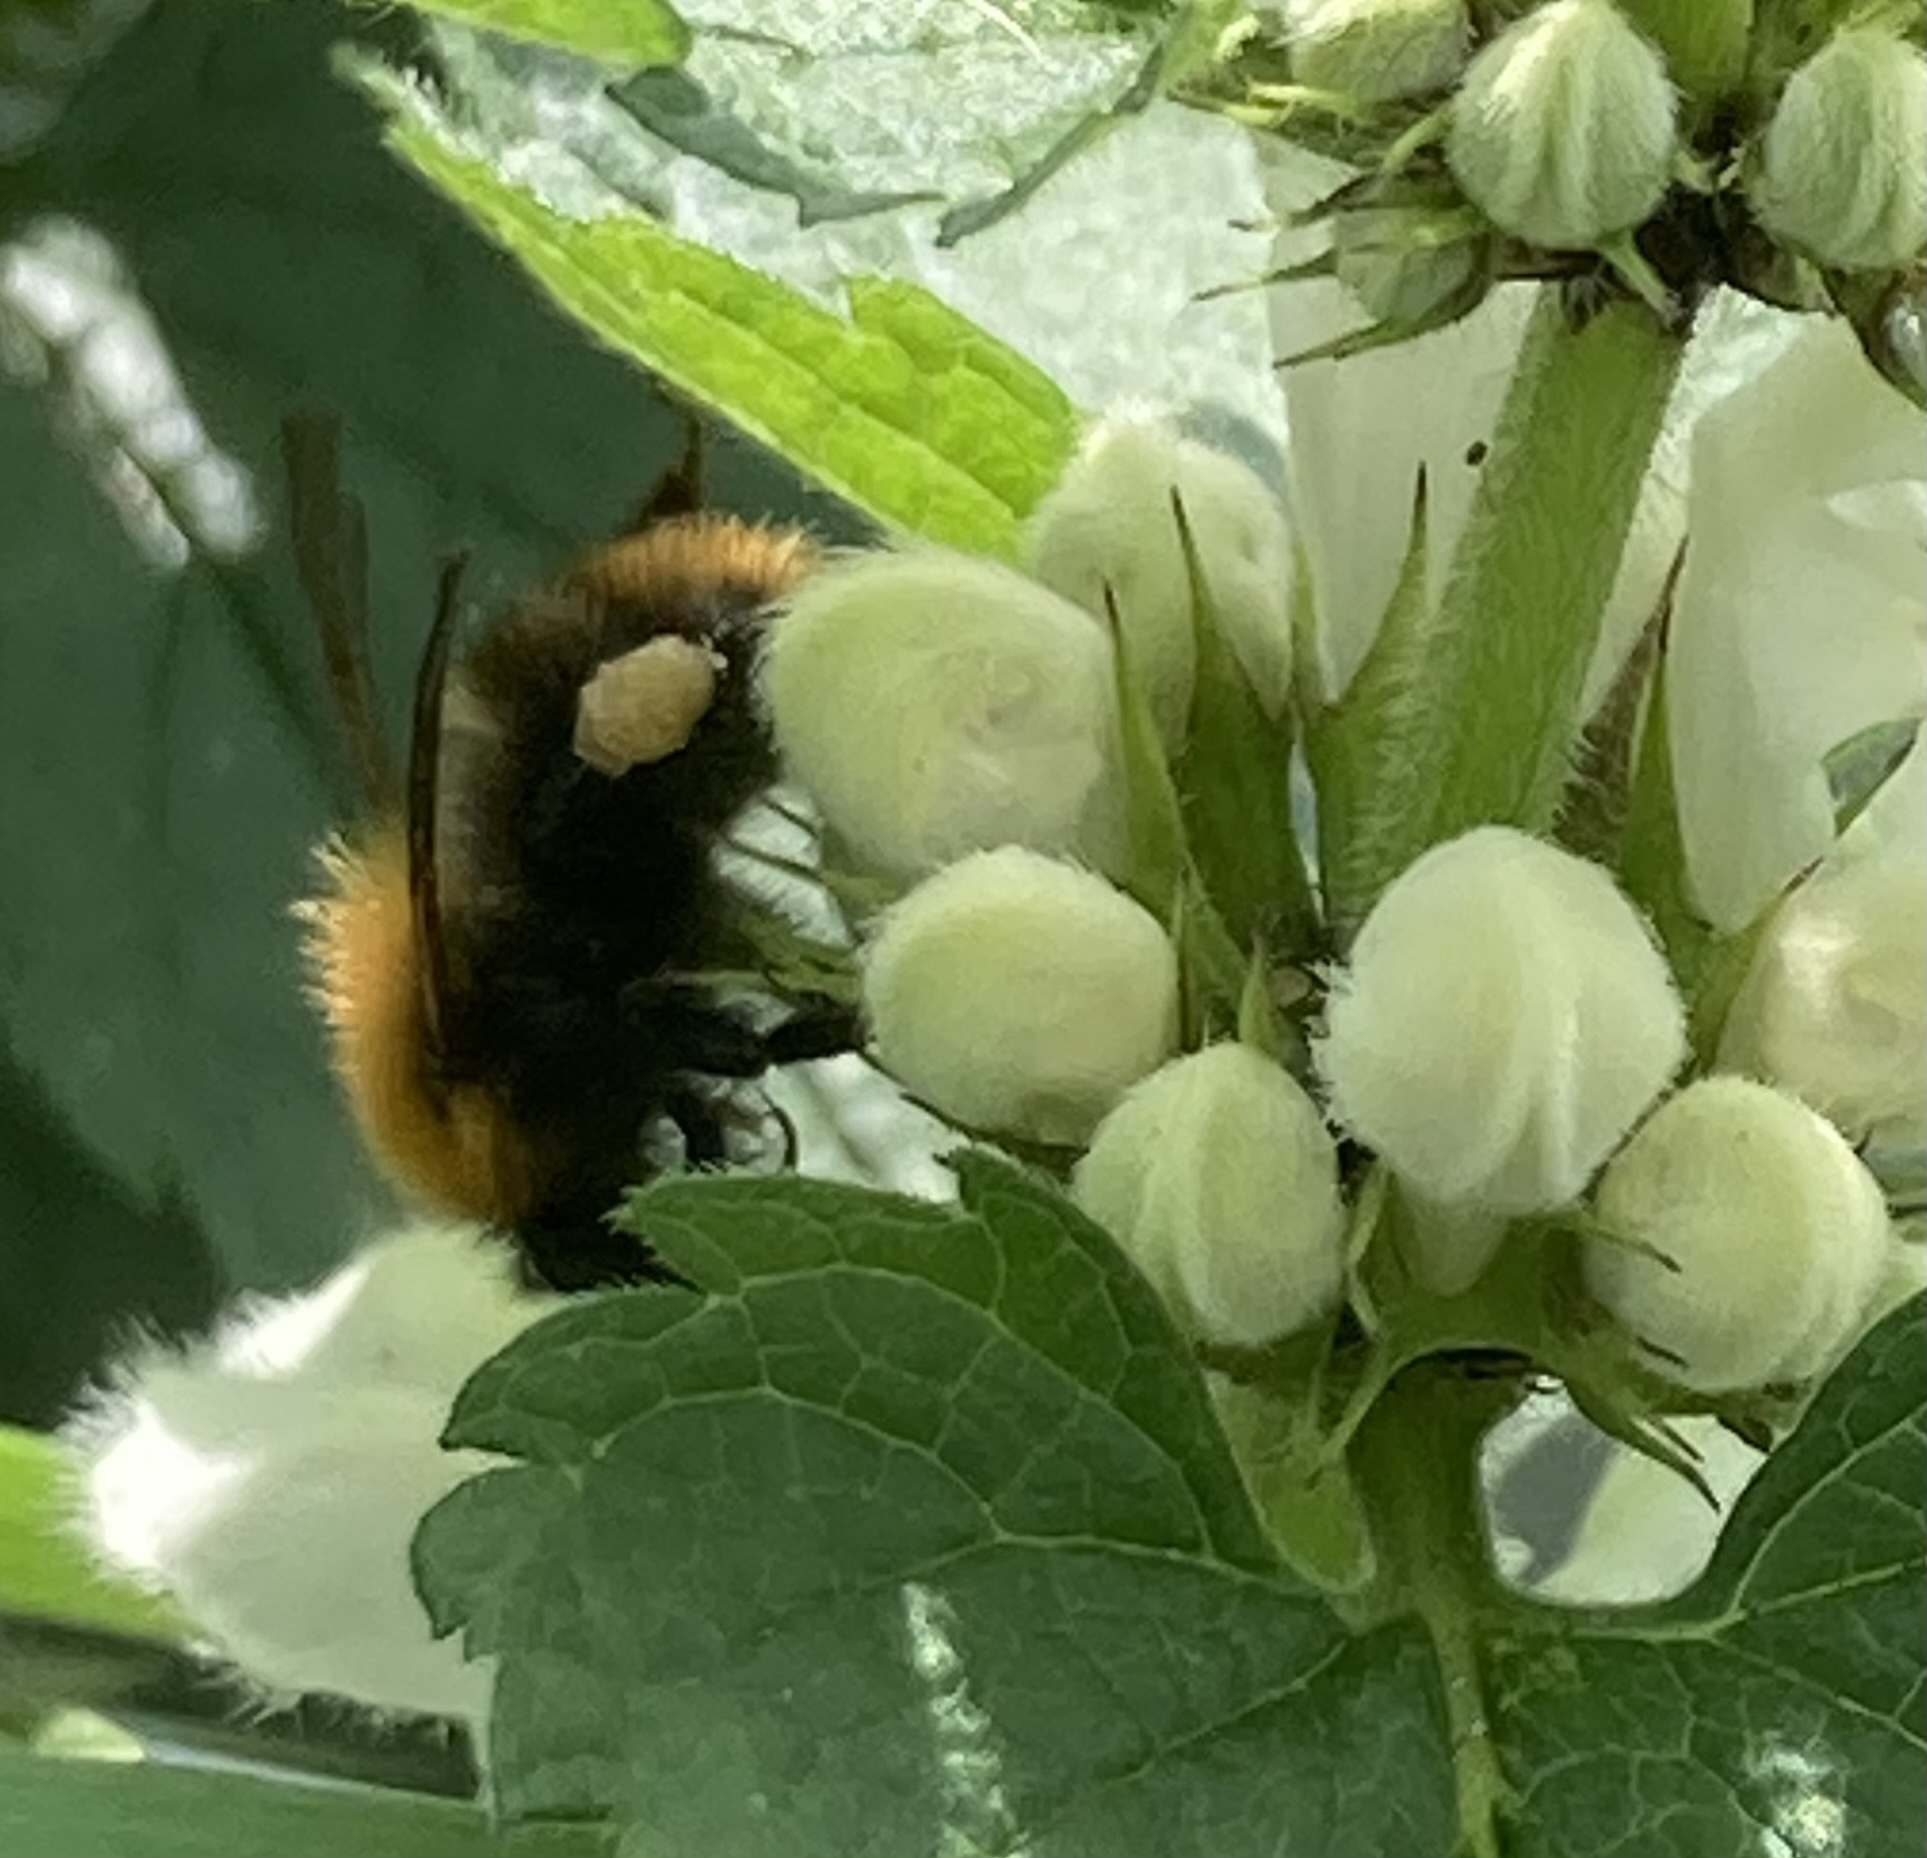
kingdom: Animalia
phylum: Arthropoda
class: Insecta
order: Hymenoptera
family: Apidae
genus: Bombus
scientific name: Bombus pascuorum
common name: Common carder bee
